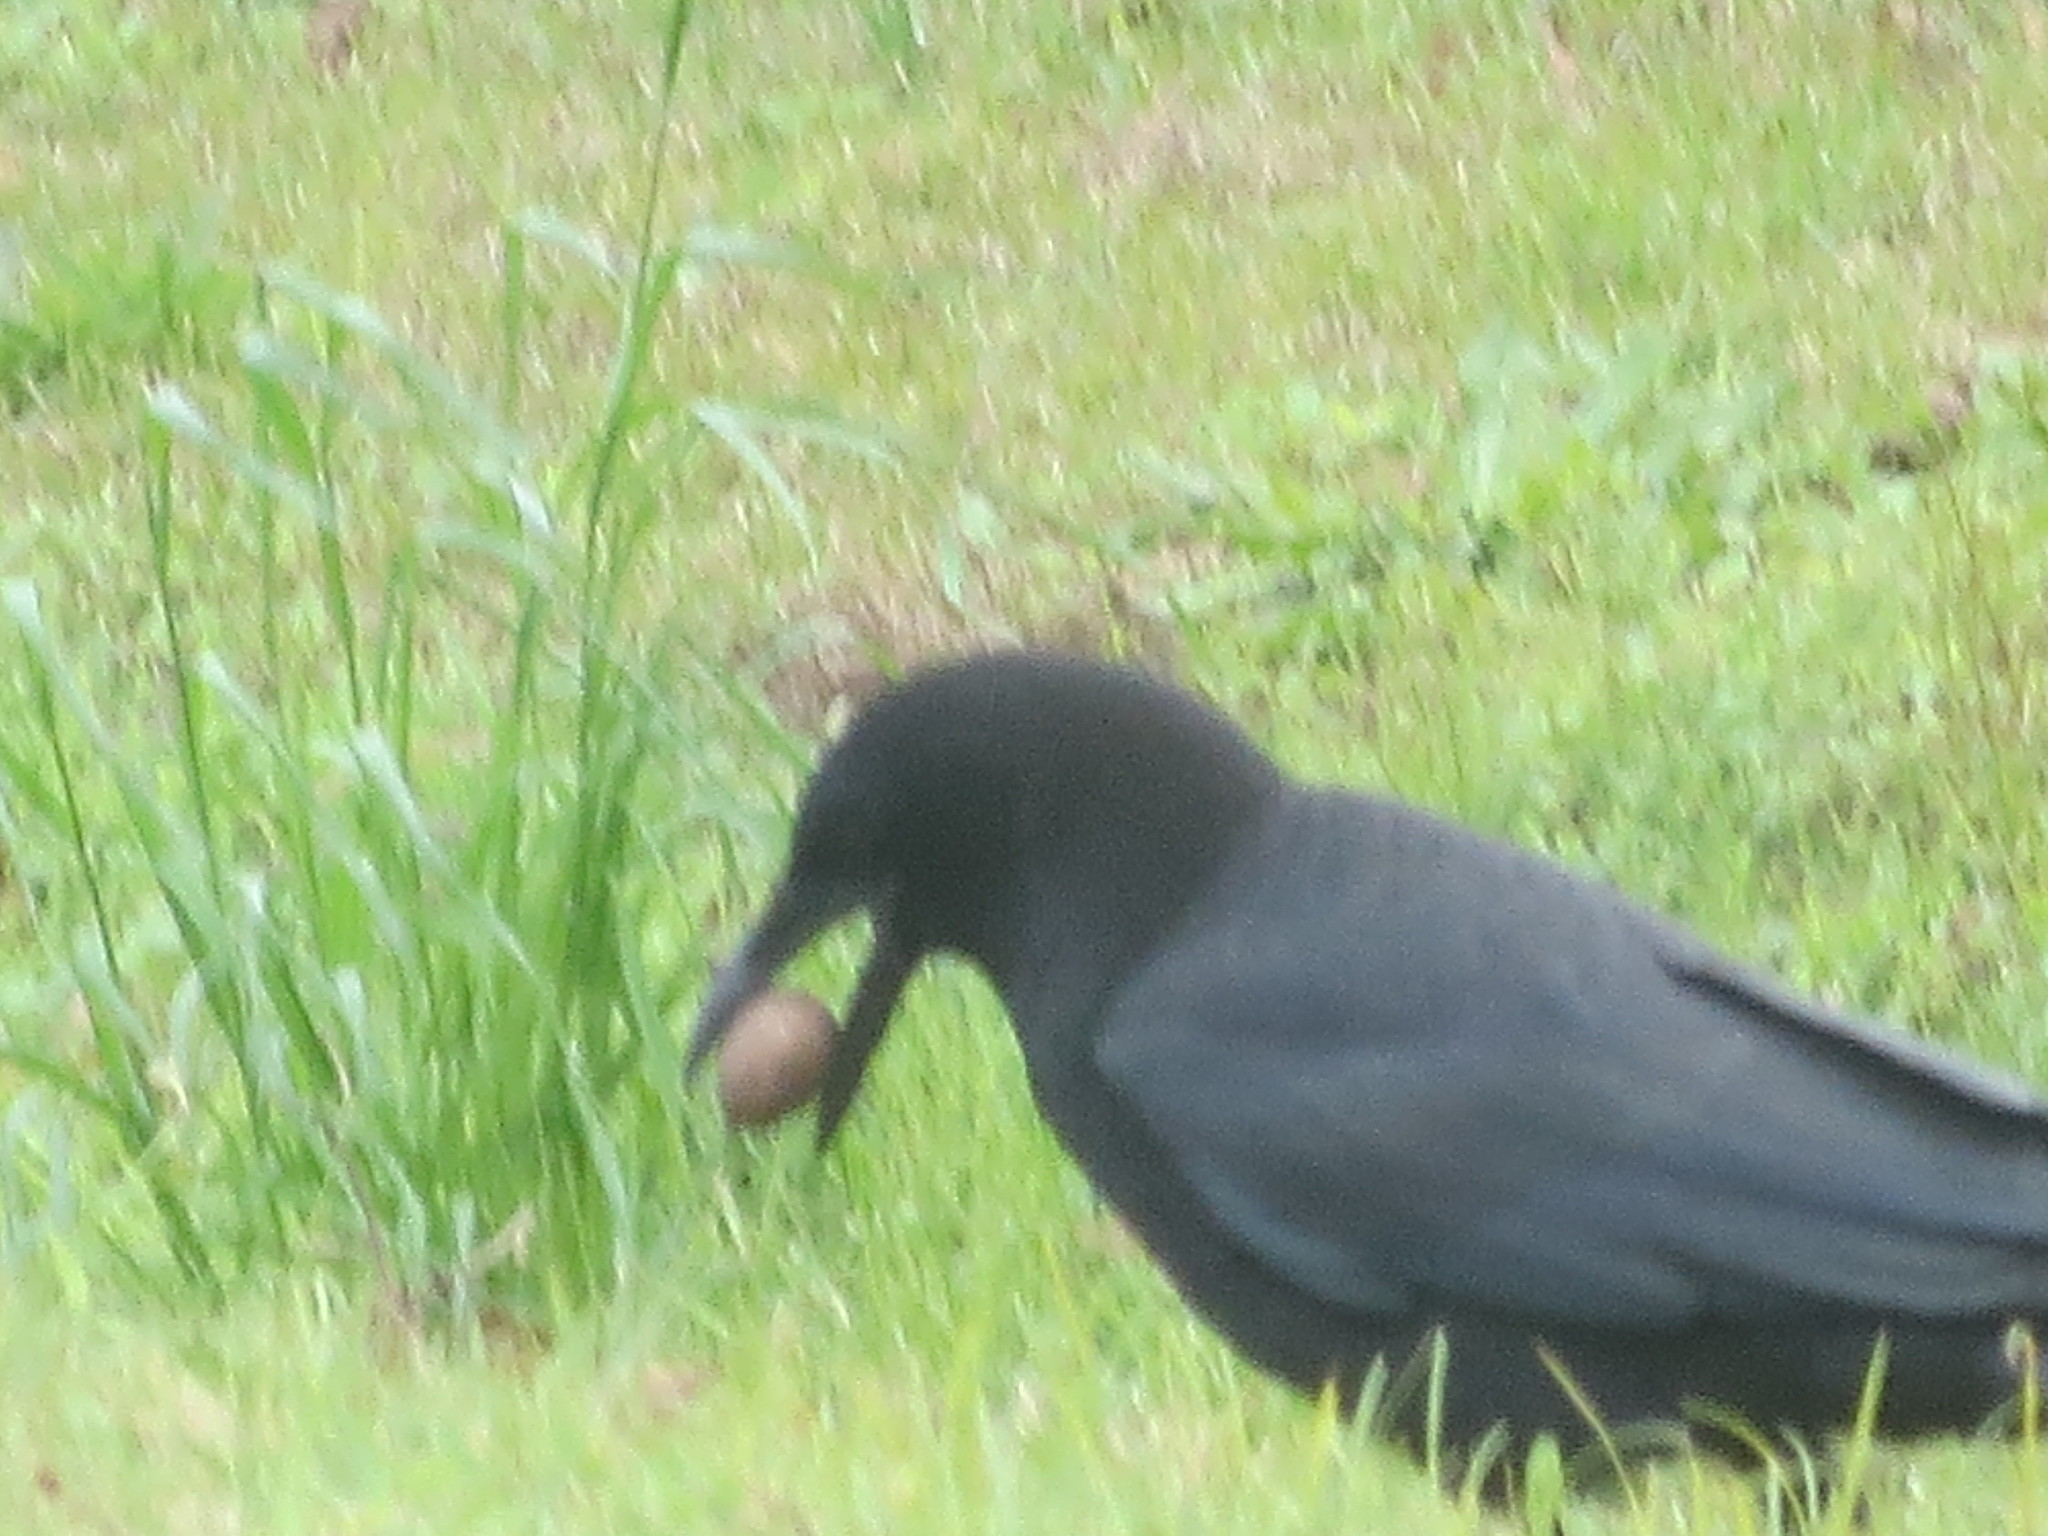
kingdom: Animalia
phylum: Chordata
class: Aves
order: Passeriformes
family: Corvidae
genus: Corvus
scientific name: Corvus brachyrhynchos
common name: American crow
